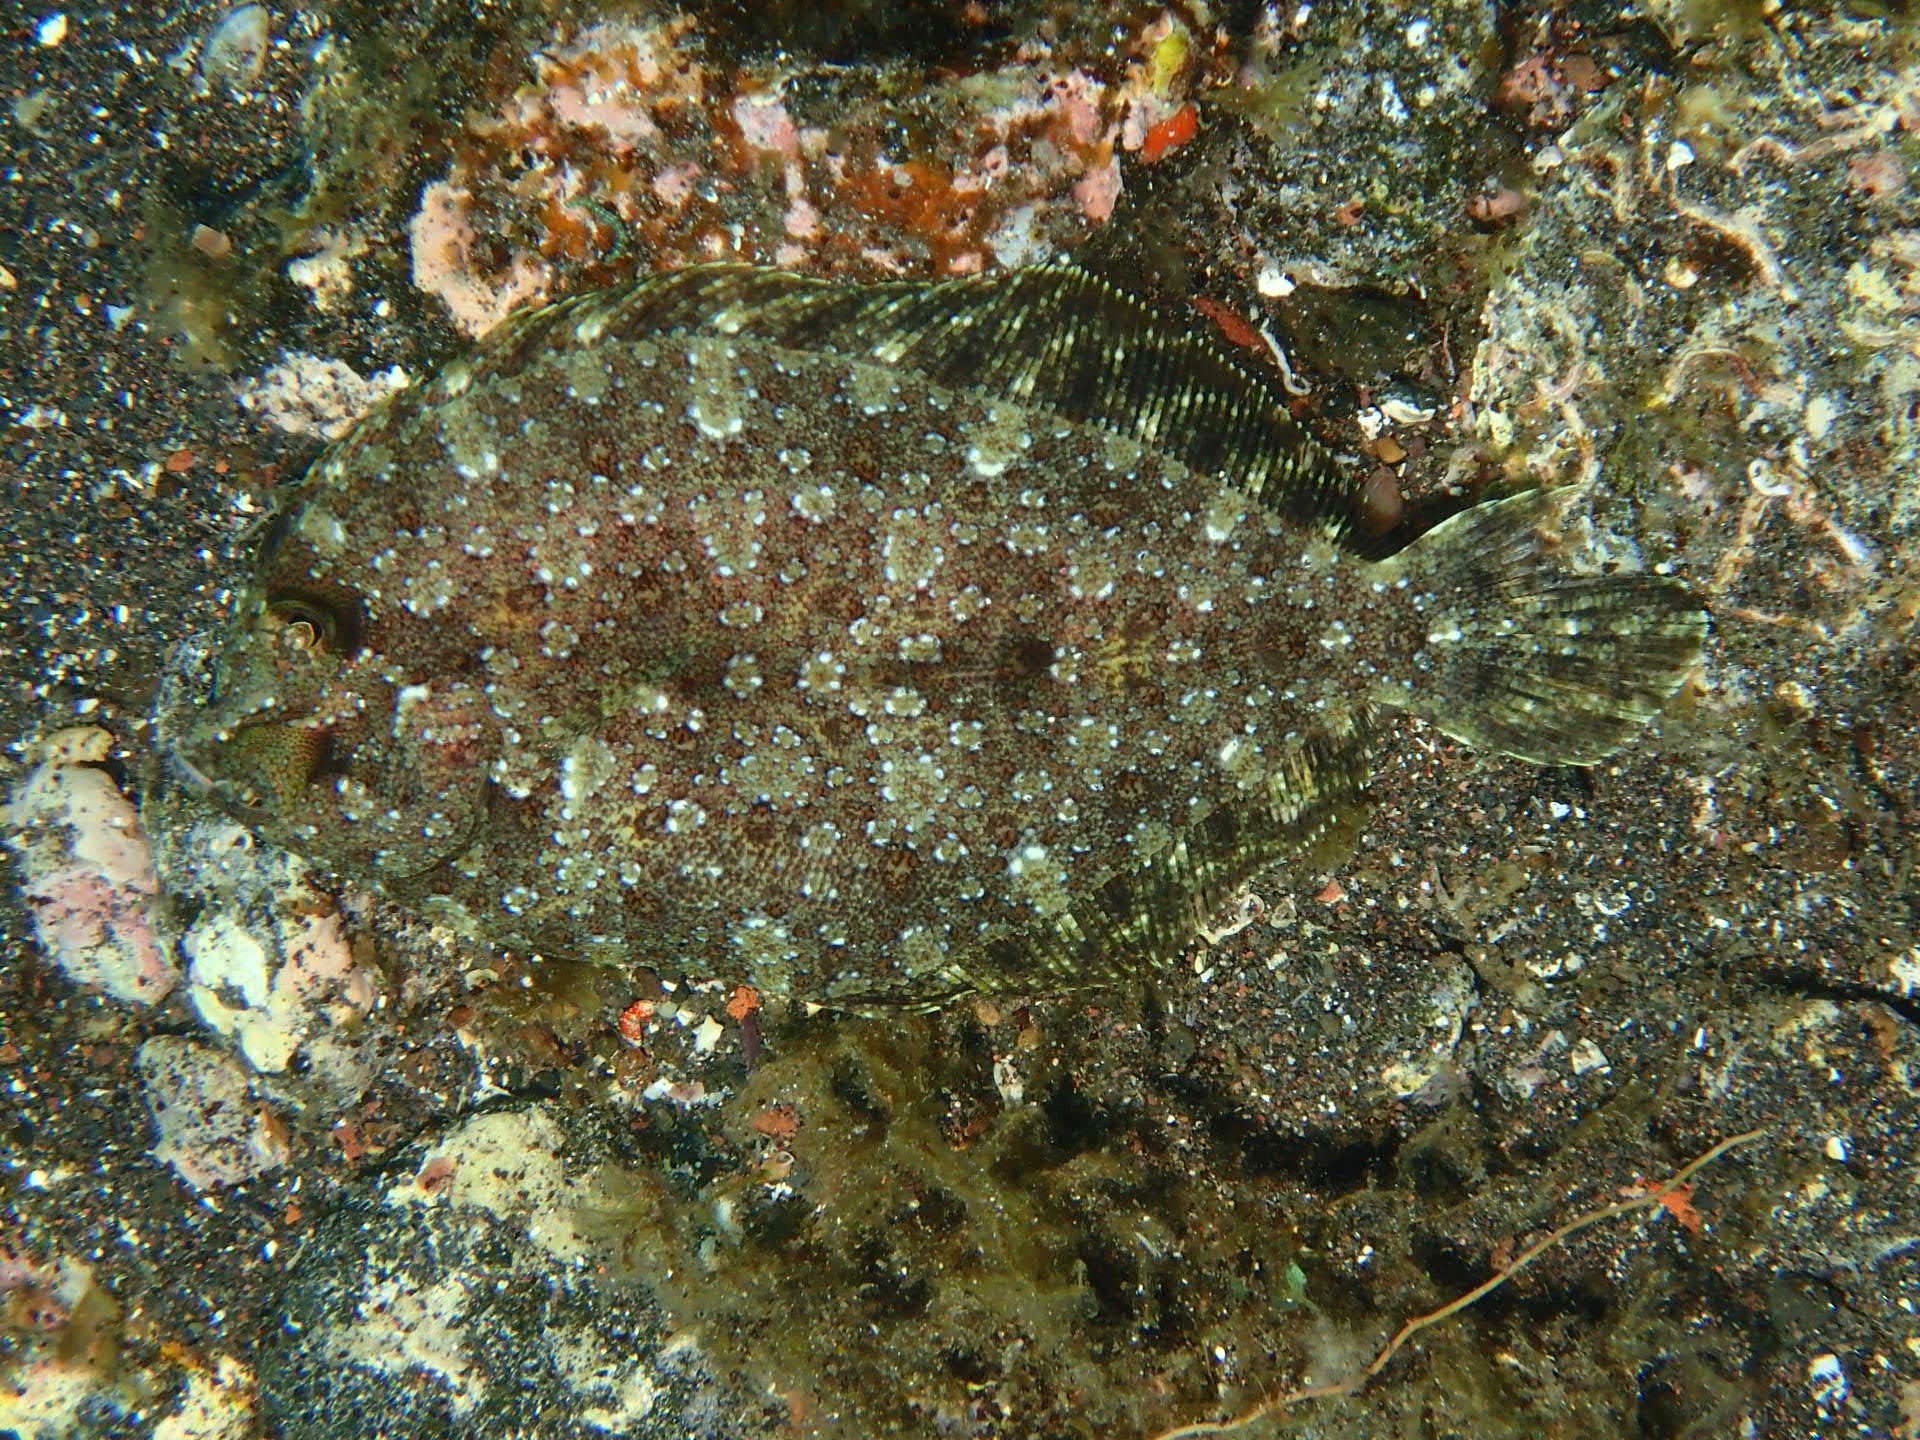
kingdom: Animalia
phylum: Chordata
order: Pleuronectiformes
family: Bothidae
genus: Bothus
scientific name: Bothus podas
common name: Wide-eyed flounder
